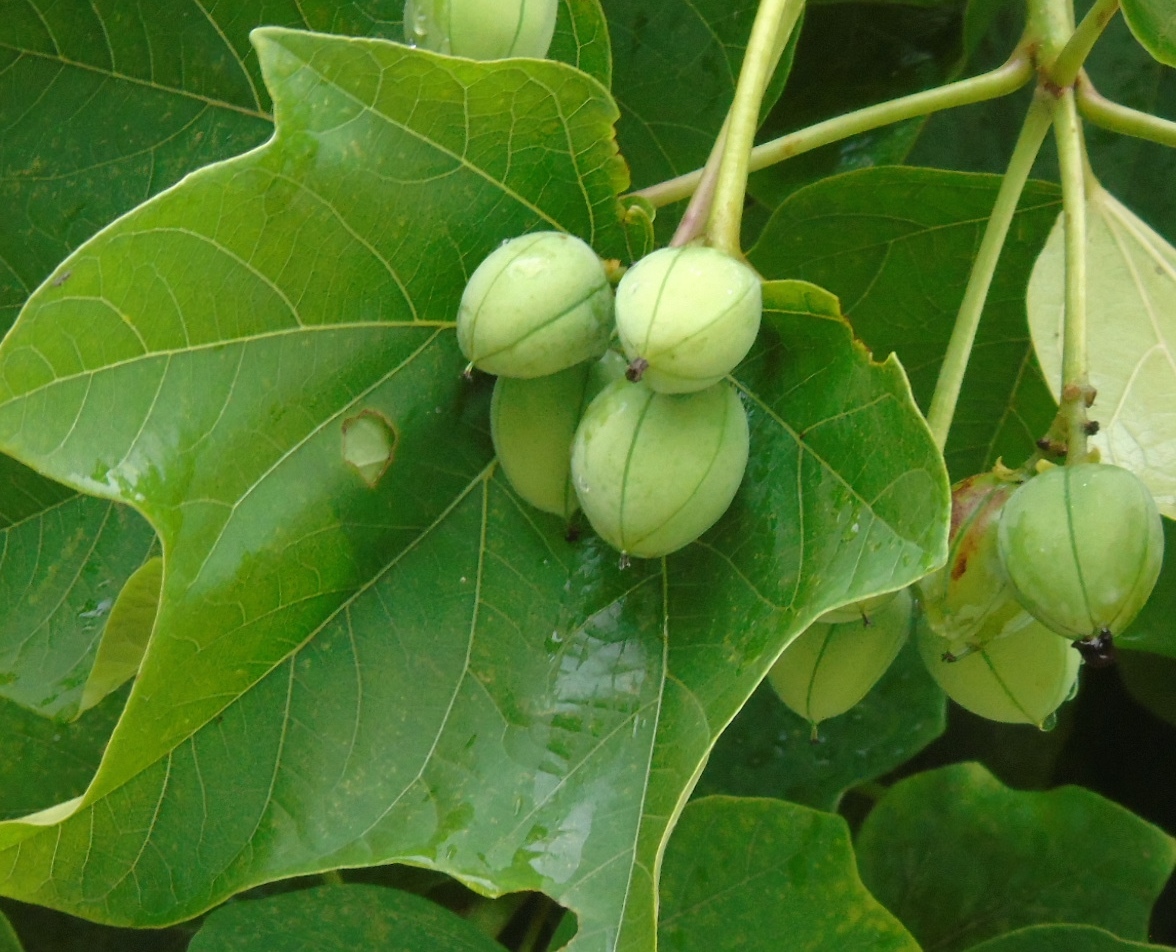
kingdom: Plantae
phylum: Tracheophyta
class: Magnoliopsida
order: Malpighiales
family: Euphorbiaceae
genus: Jatropha
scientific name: Jatropha curcas
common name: Barbados nut
